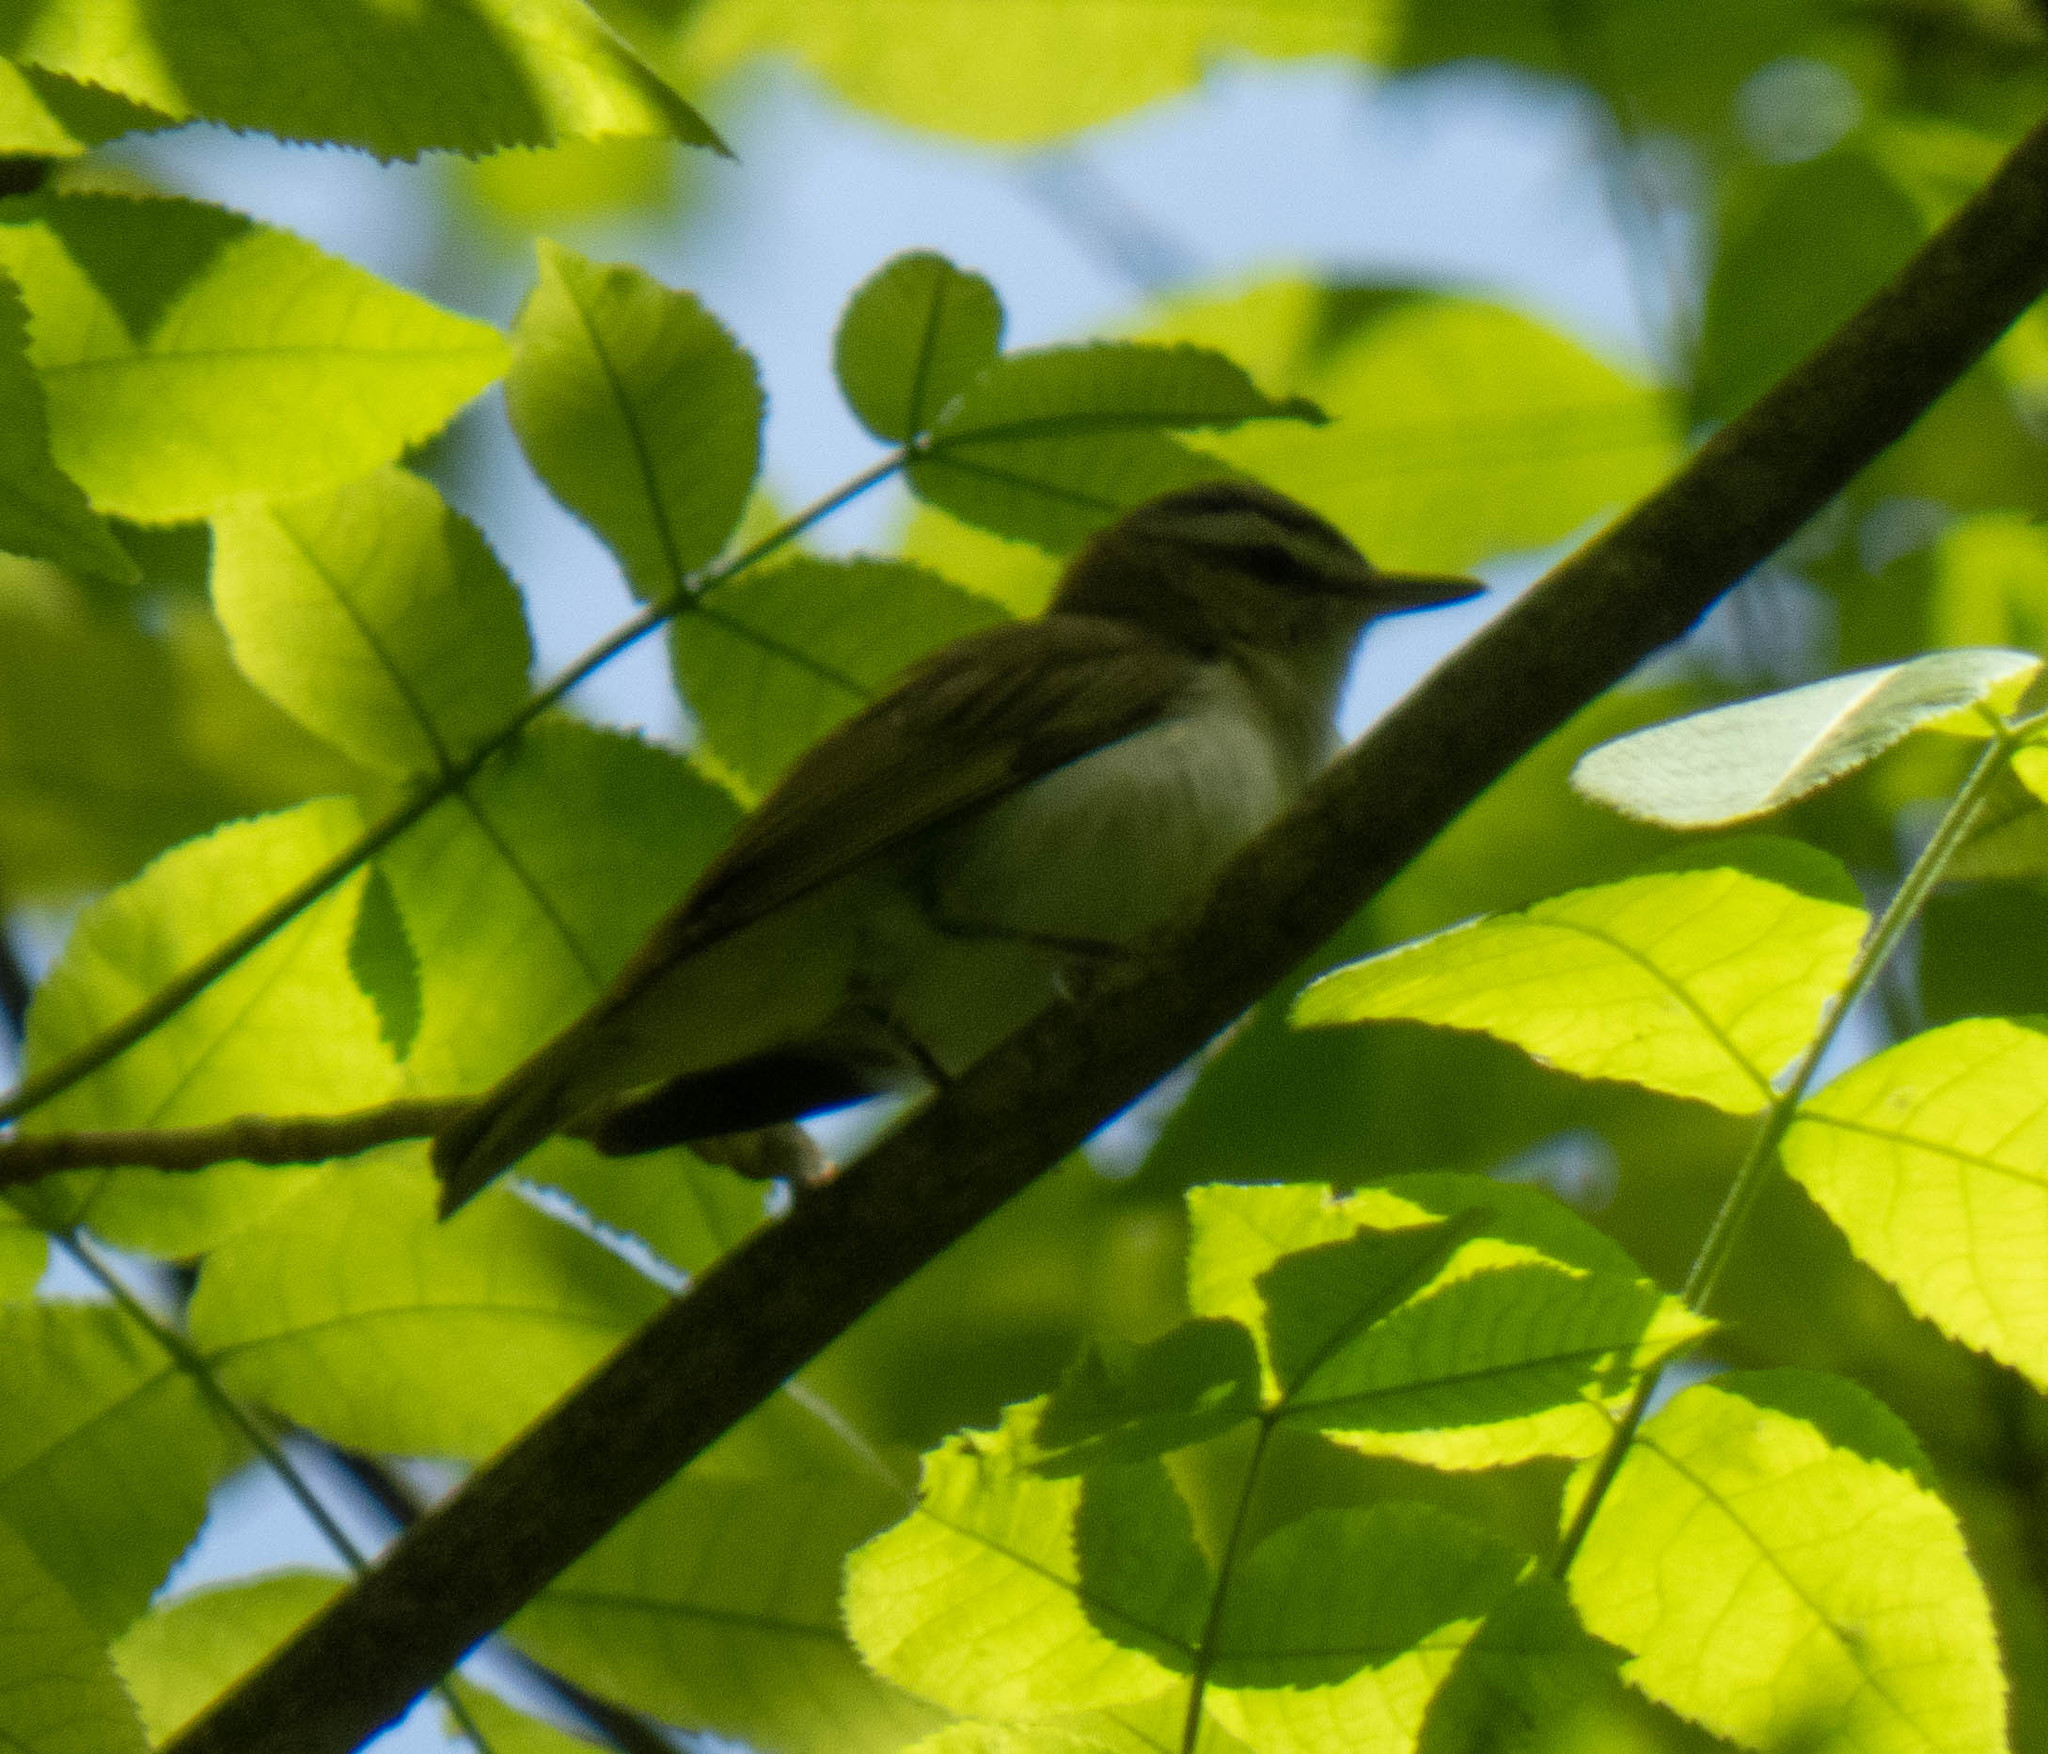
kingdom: Animalia
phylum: Chordata
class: Aves
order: Passeriformes
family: Vireonidae
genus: Vireo
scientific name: Vireo olivaceus
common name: Red-eyed vireo
